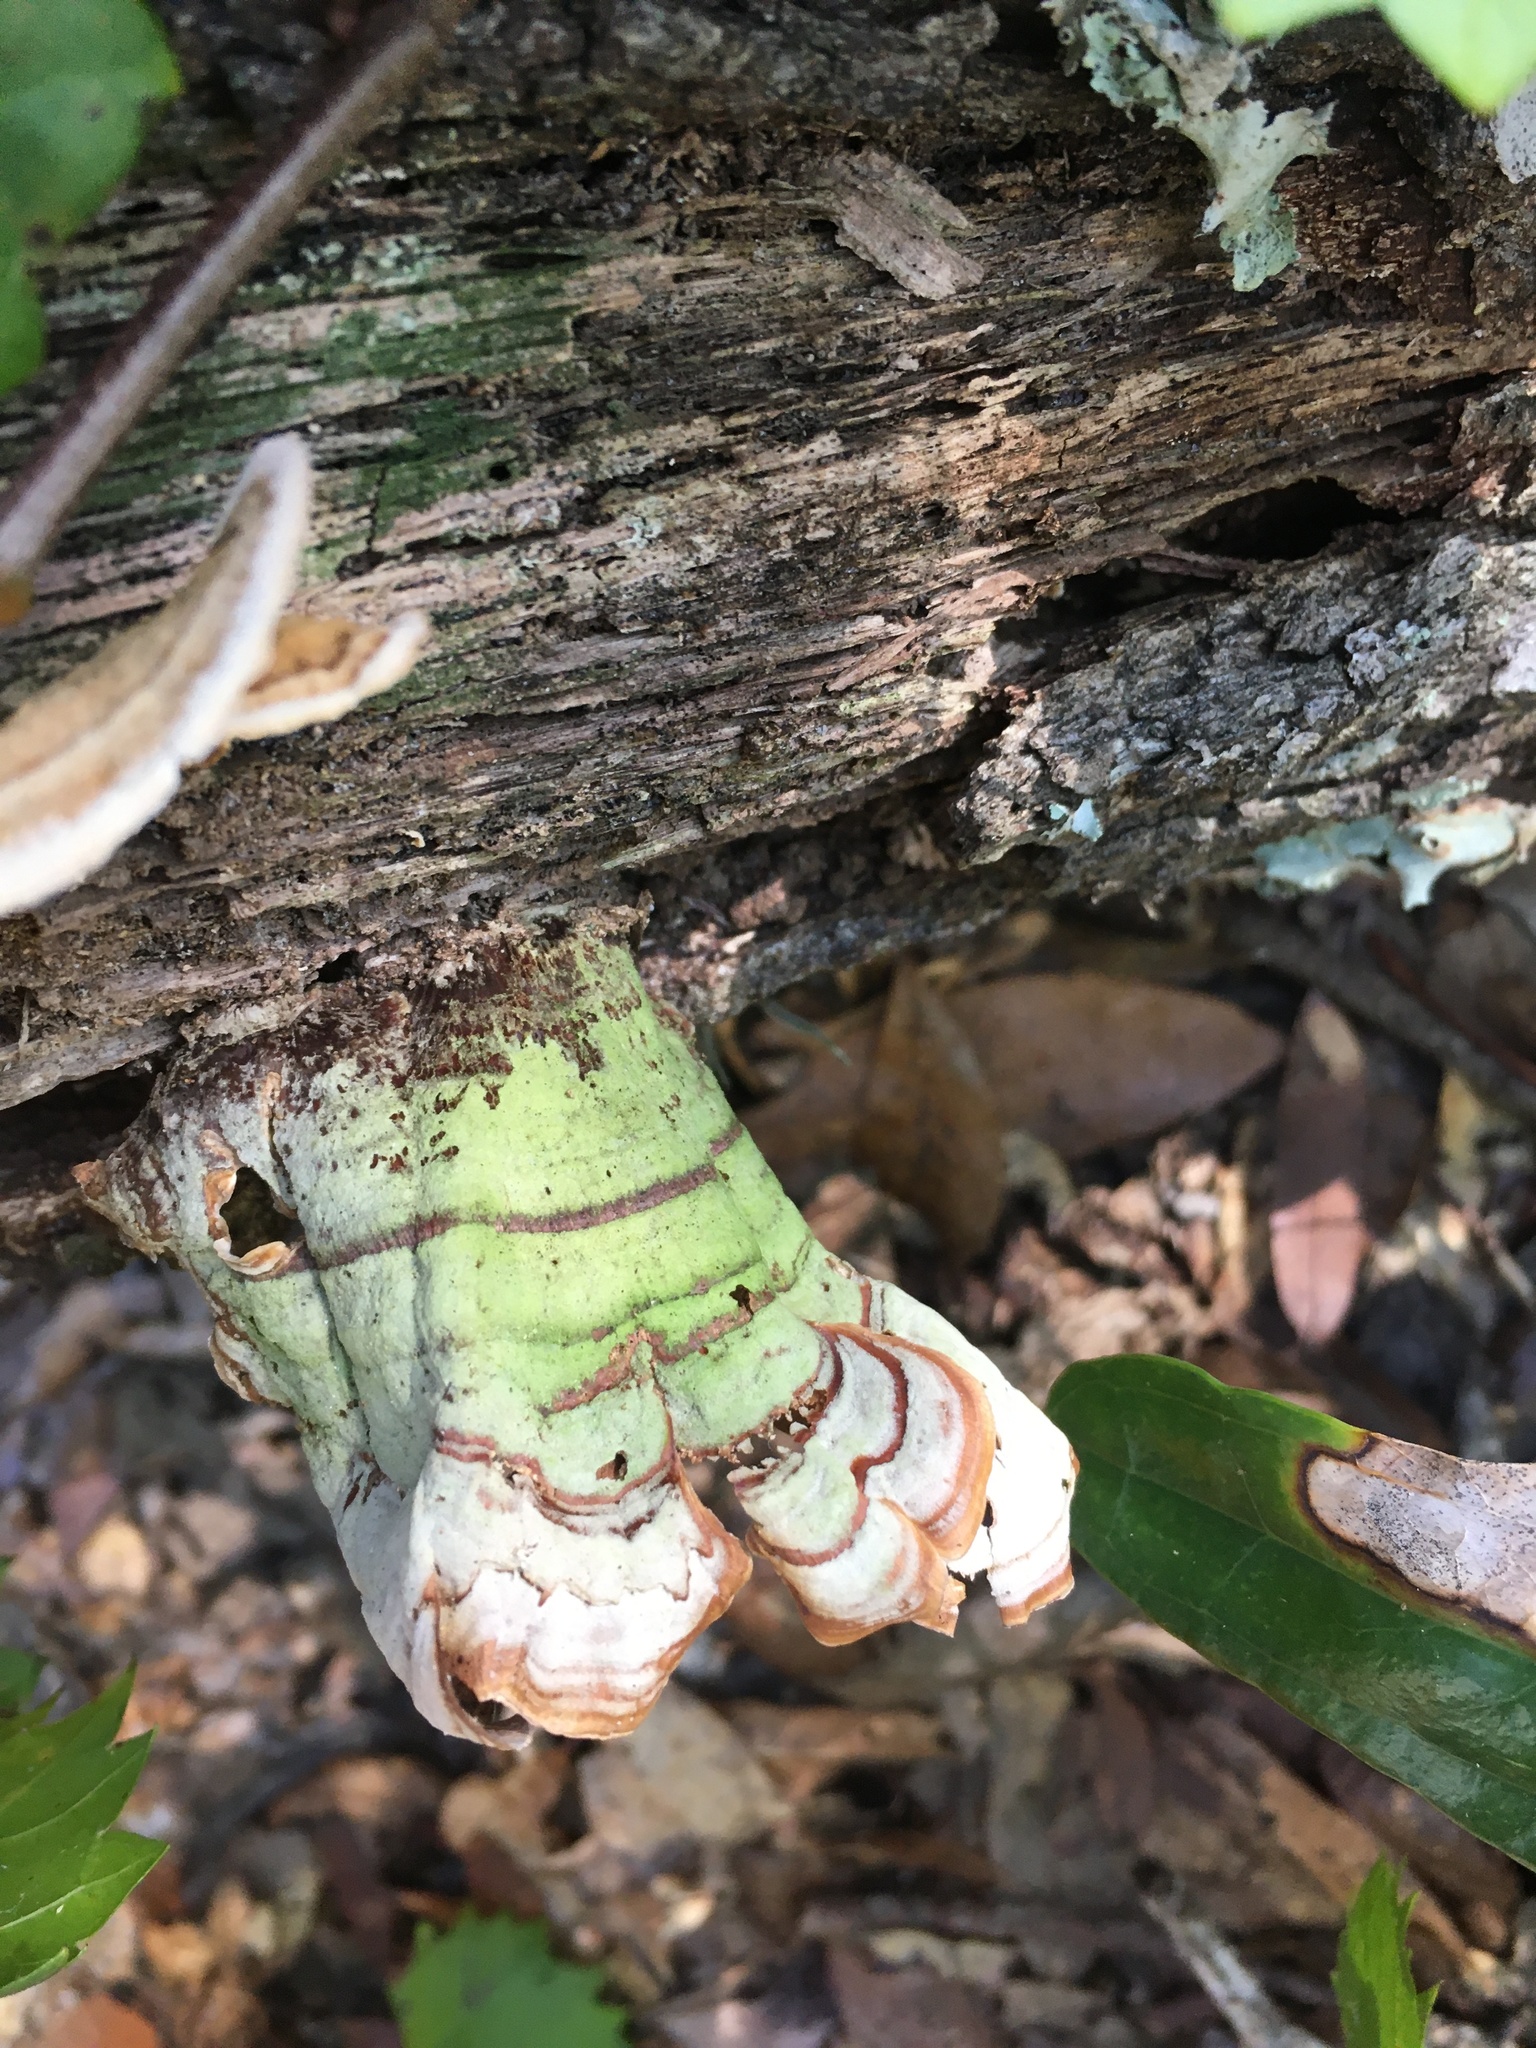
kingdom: Fungi
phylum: Basidiomycota
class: Agaricomycetes
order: Russulales
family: Stereaceae
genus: Stereum
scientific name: Stereum lobatum
